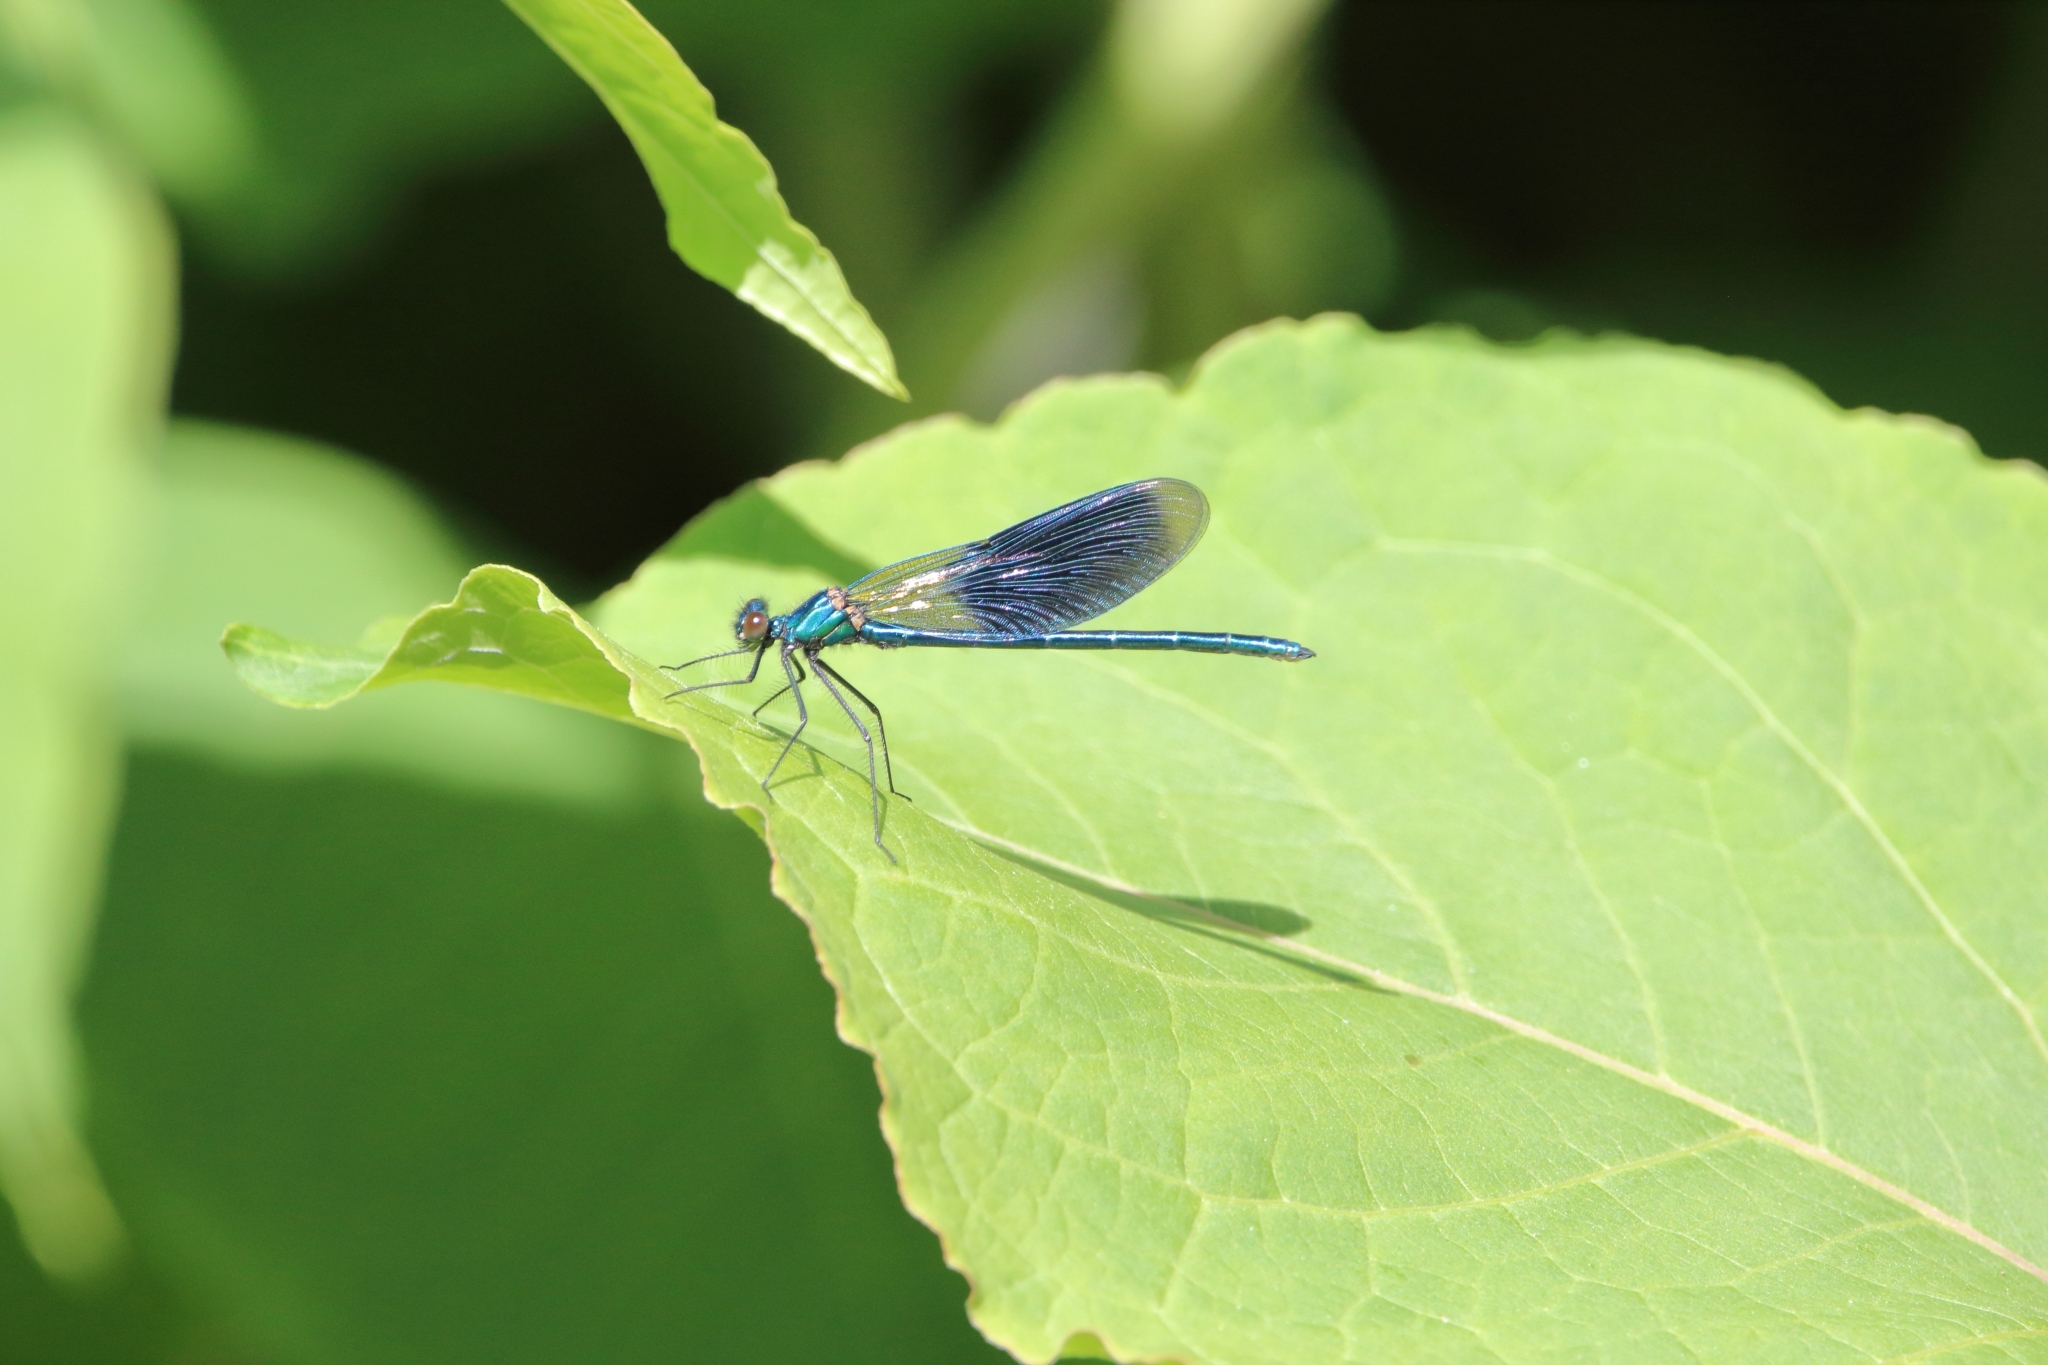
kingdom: Animalia
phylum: Arthropoda
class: Insecta
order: Odonata
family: Calopterygidae
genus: Calopteryx
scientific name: Calopteryx splendens
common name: Banded demoiselle
